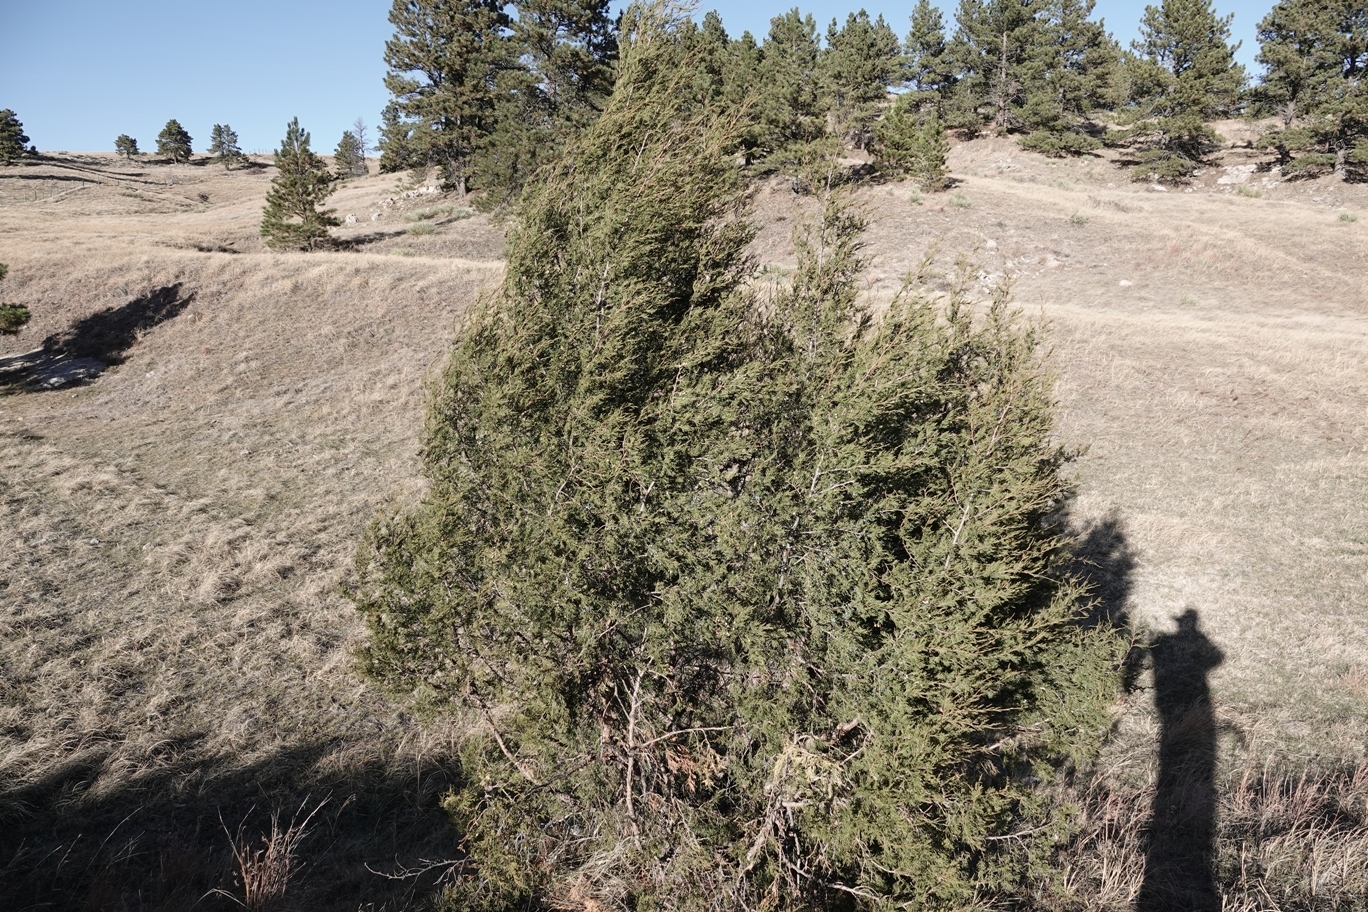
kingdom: Plantae
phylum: Tracheophyta
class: Pinopsida
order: Pinales
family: Cupressaceae
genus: Juniperus
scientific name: Juniperus scopulorum
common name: Rocky mountain juniper
